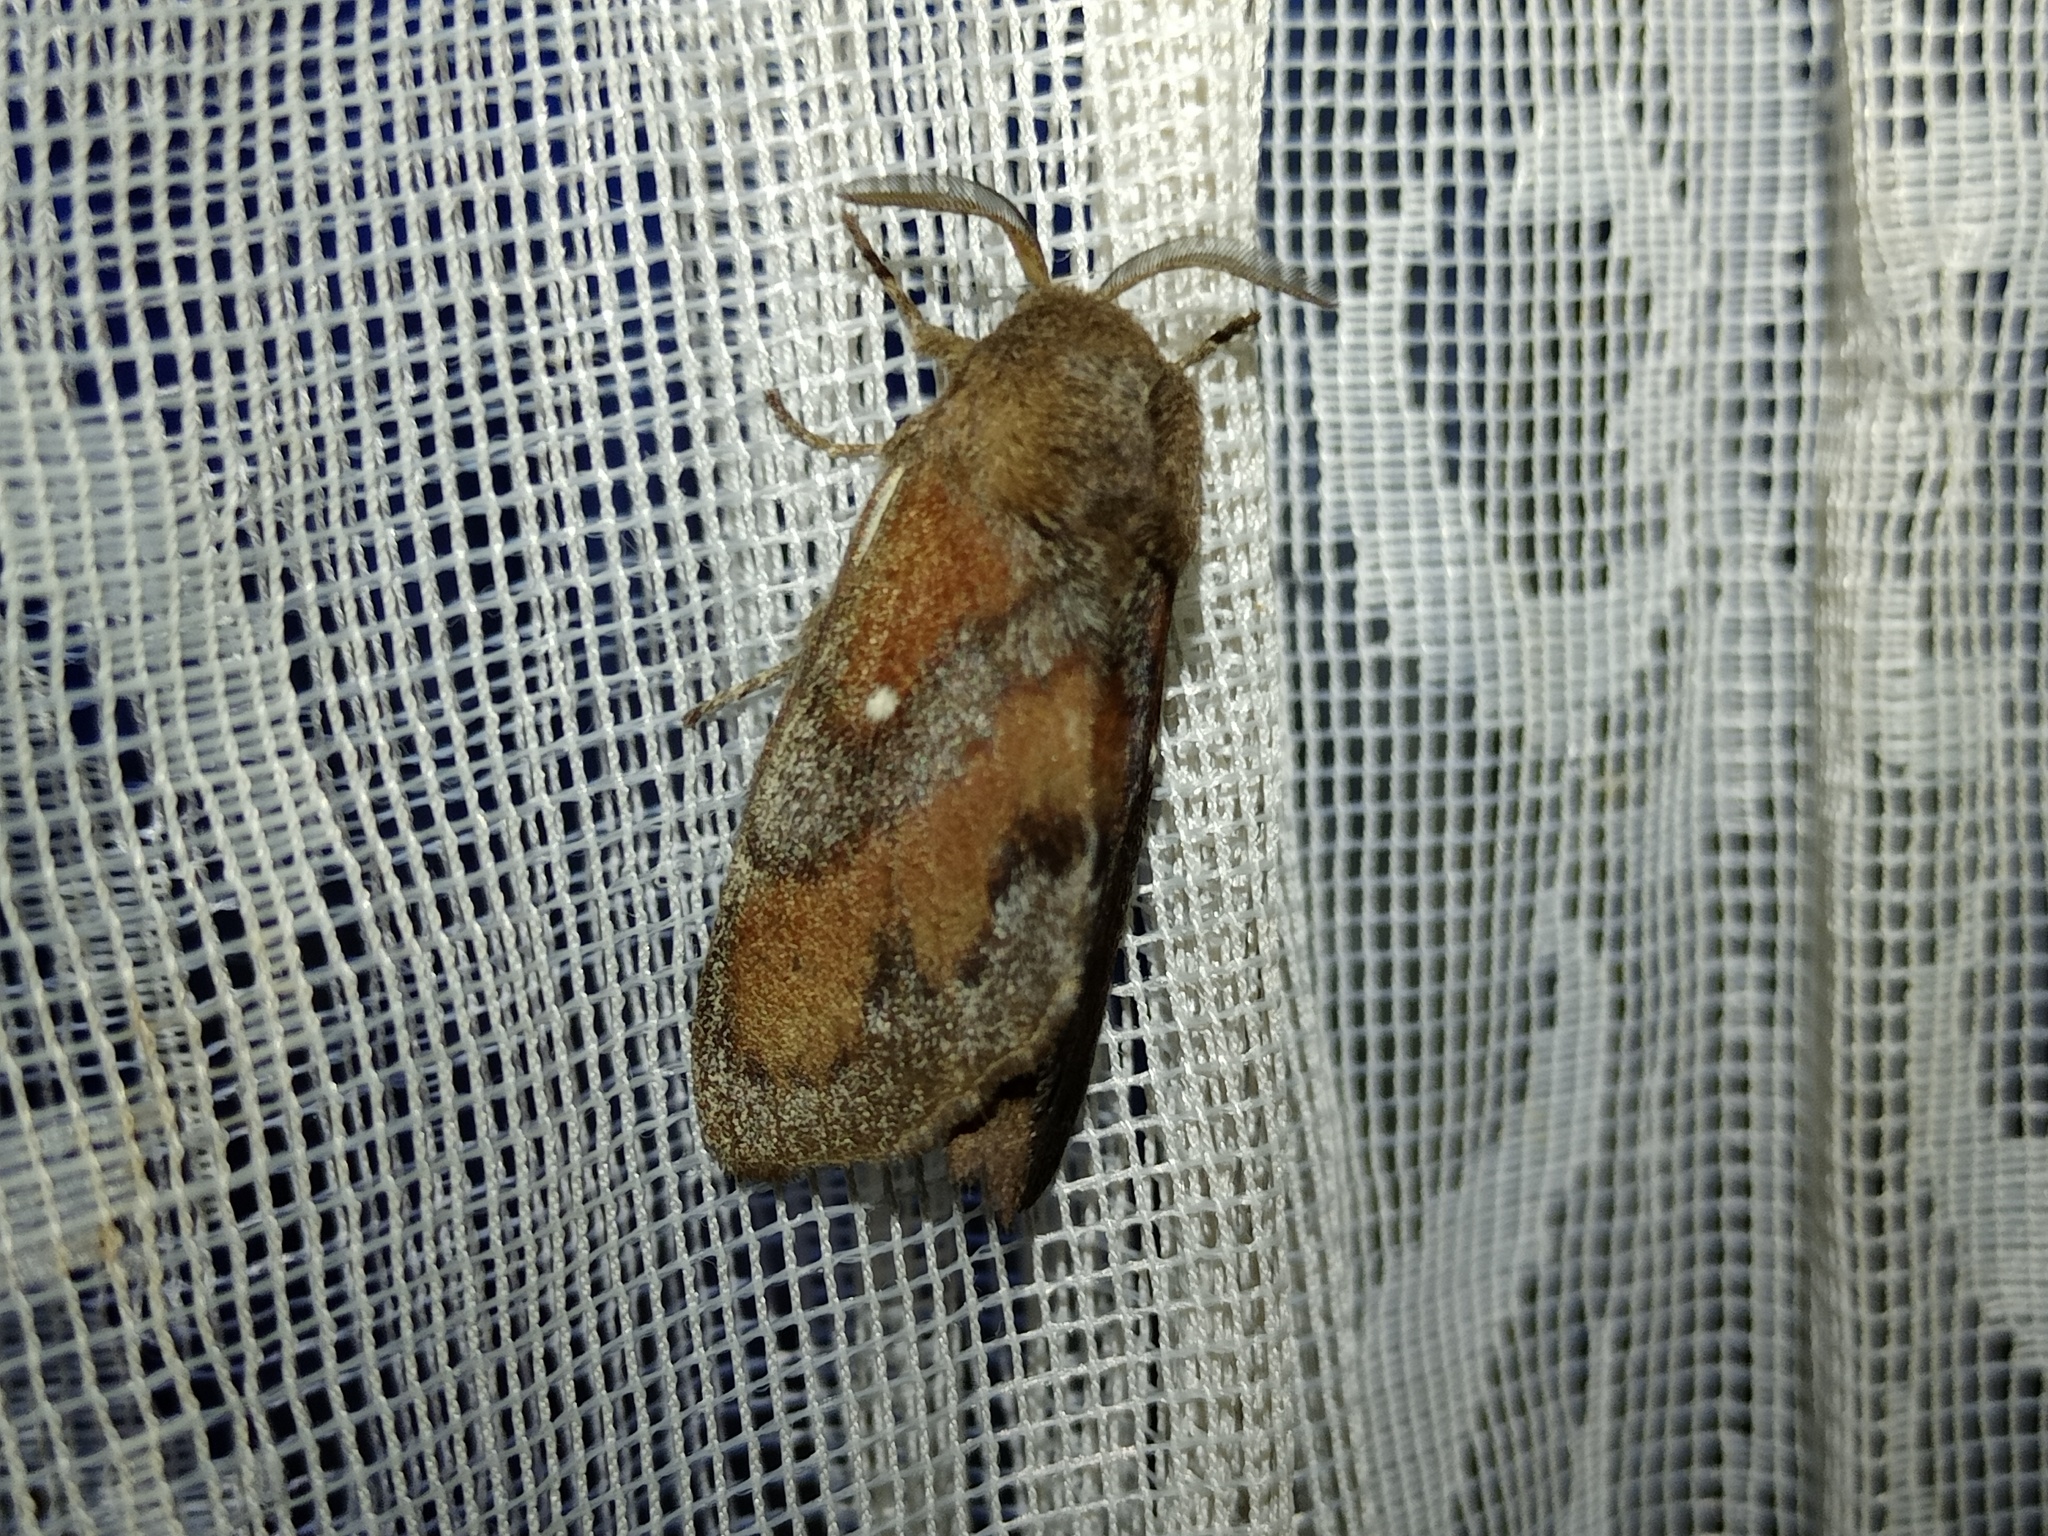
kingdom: Animalia
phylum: Arthropoda
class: Insecta
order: Lepidoptera
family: Lasiocampidae
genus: Dendrolimus
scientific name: Dendrolimus pini
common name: Pine-tree lappet
